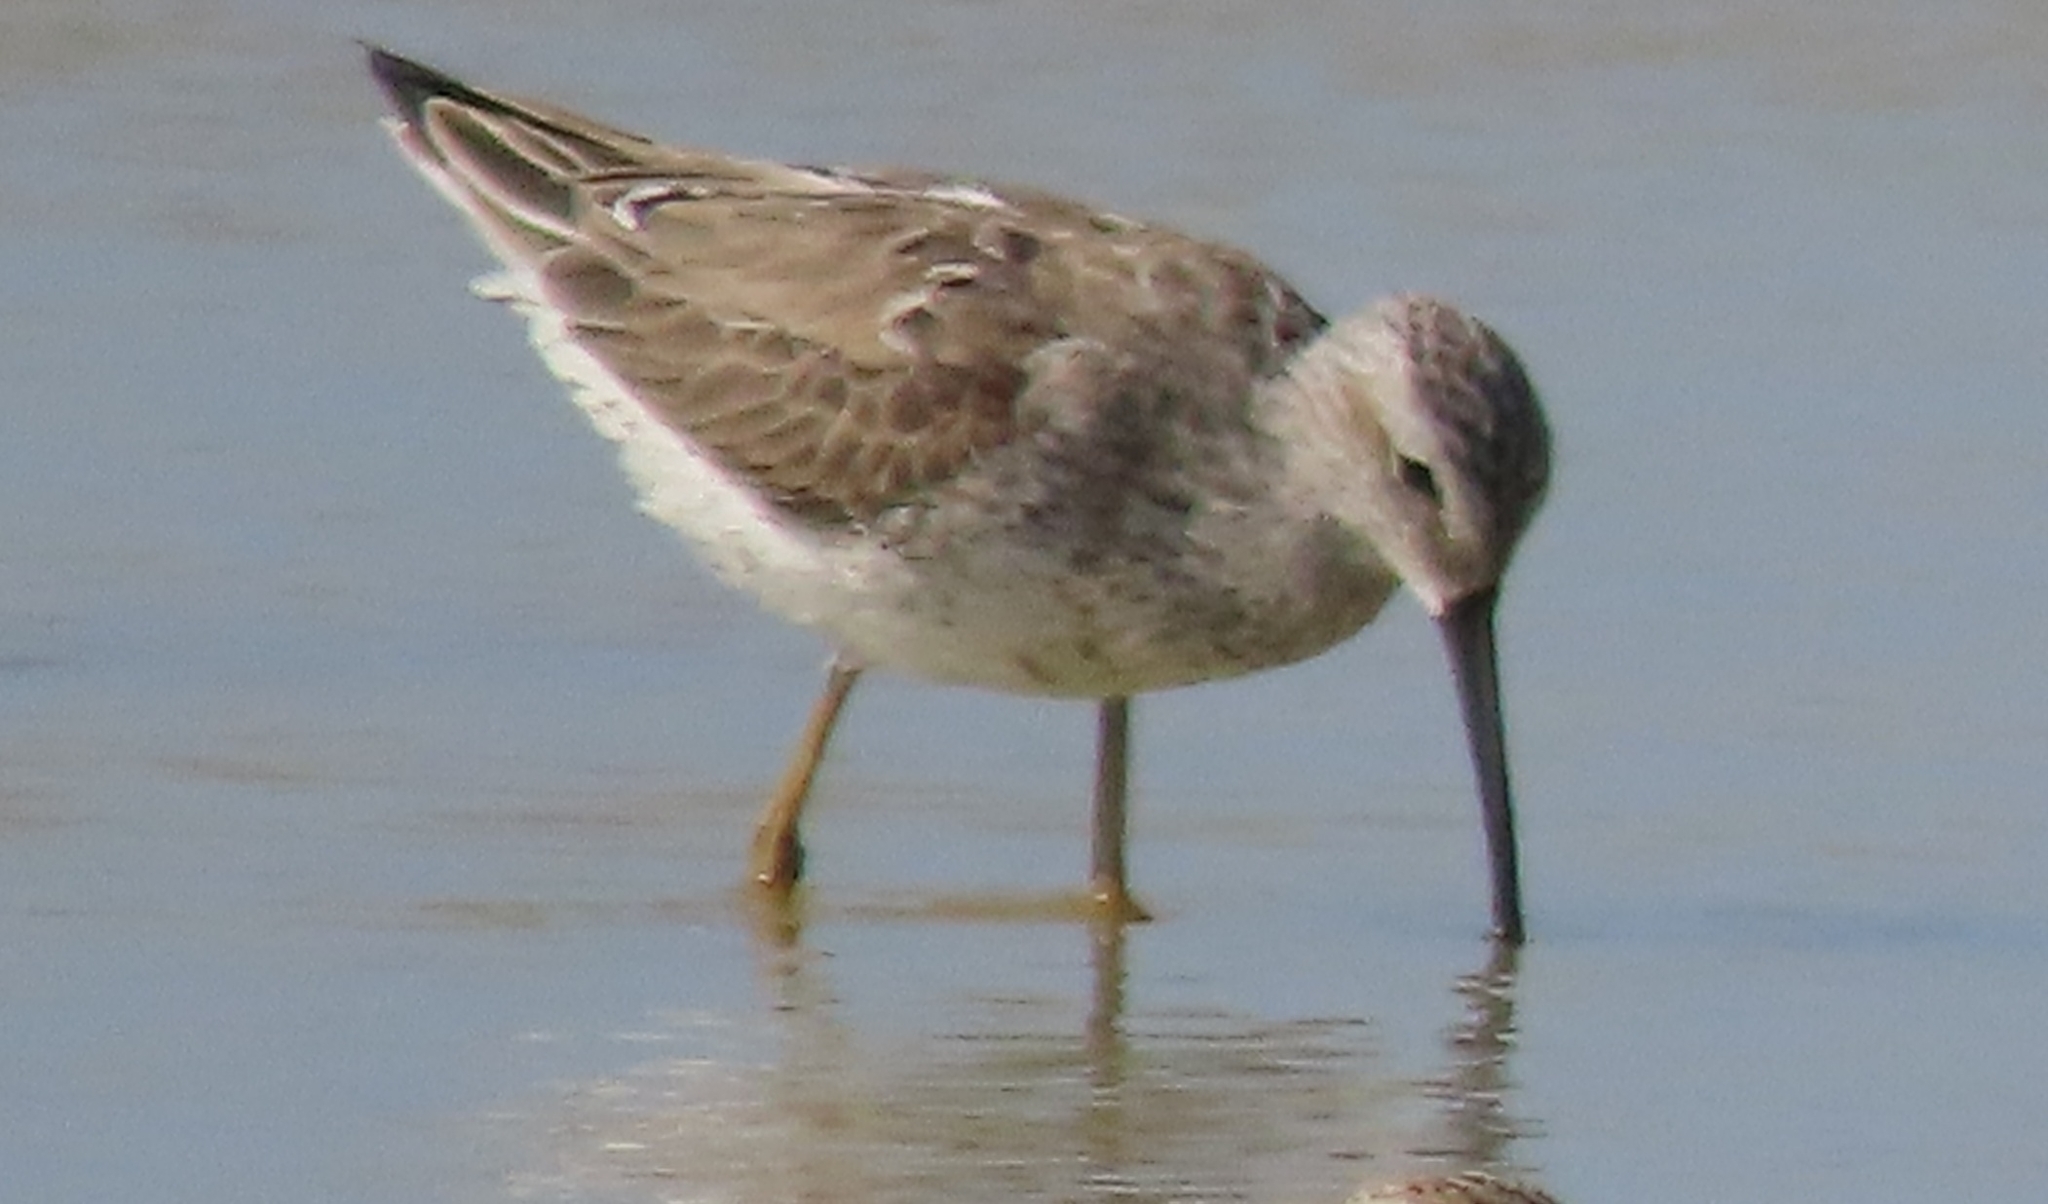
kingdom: Animalia
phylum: Chordata
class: Aves
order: Charadriiformes
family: Scolopacidae
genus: Calidris
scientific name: Calidris himantopus
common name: Stilt sandpiper
